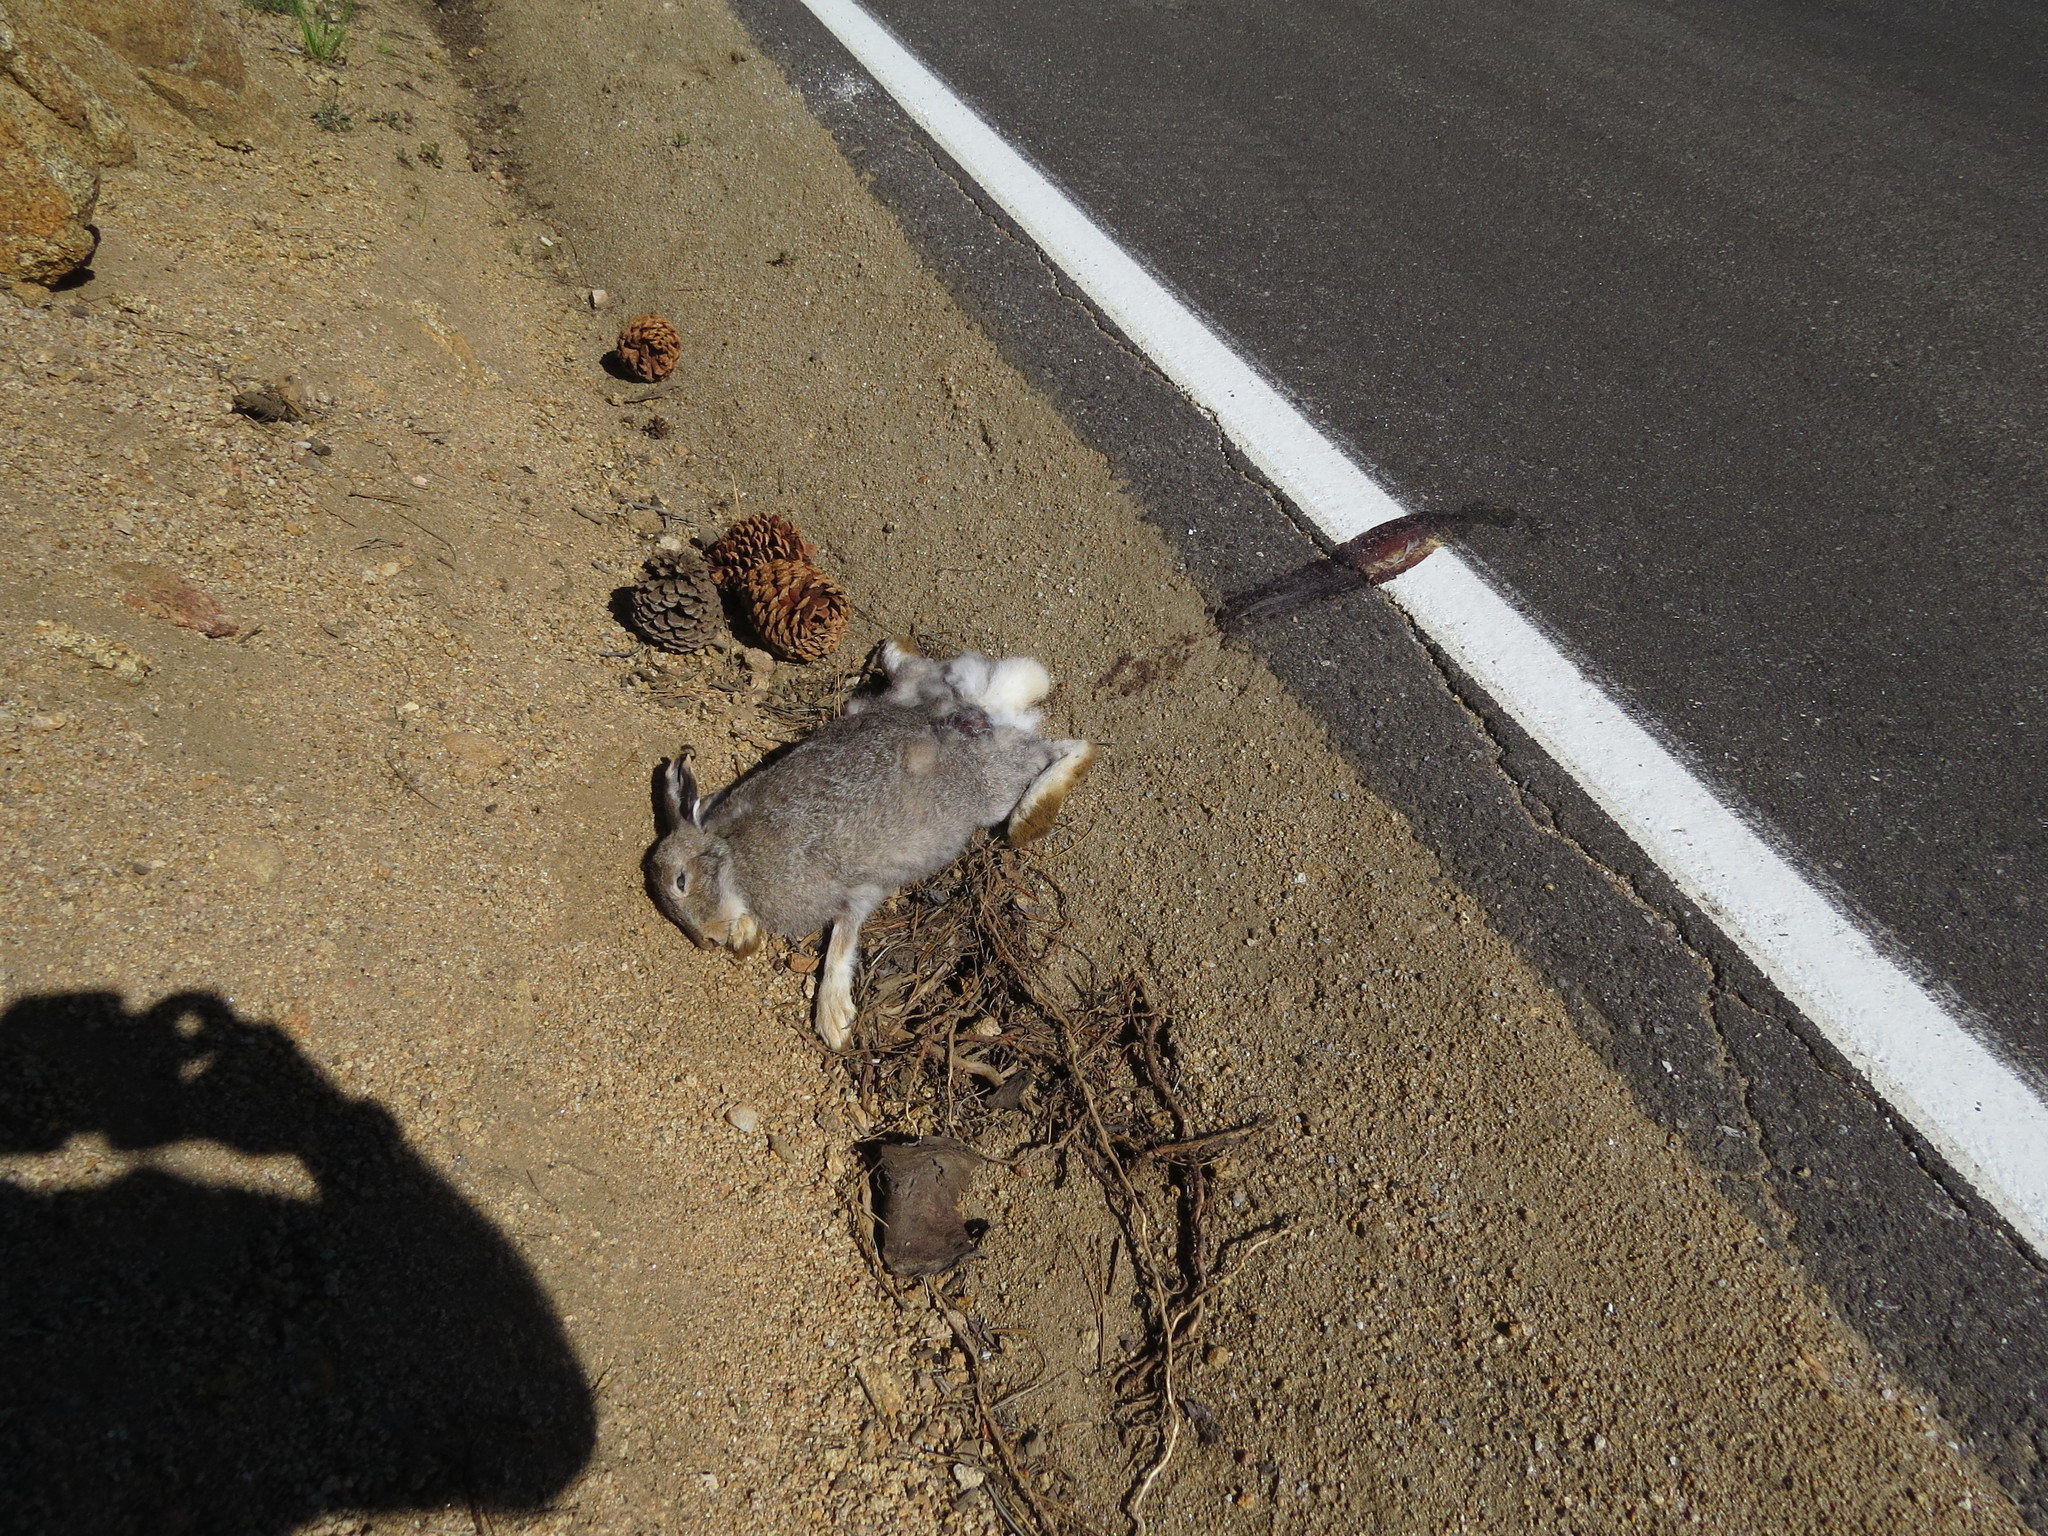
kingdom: Animalia
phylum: Chordata
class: Mammalia
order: Lagomorpha
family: Leporidae
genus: Lepus
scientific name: Lepus townsendii
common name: White-tailed jackrabbit
